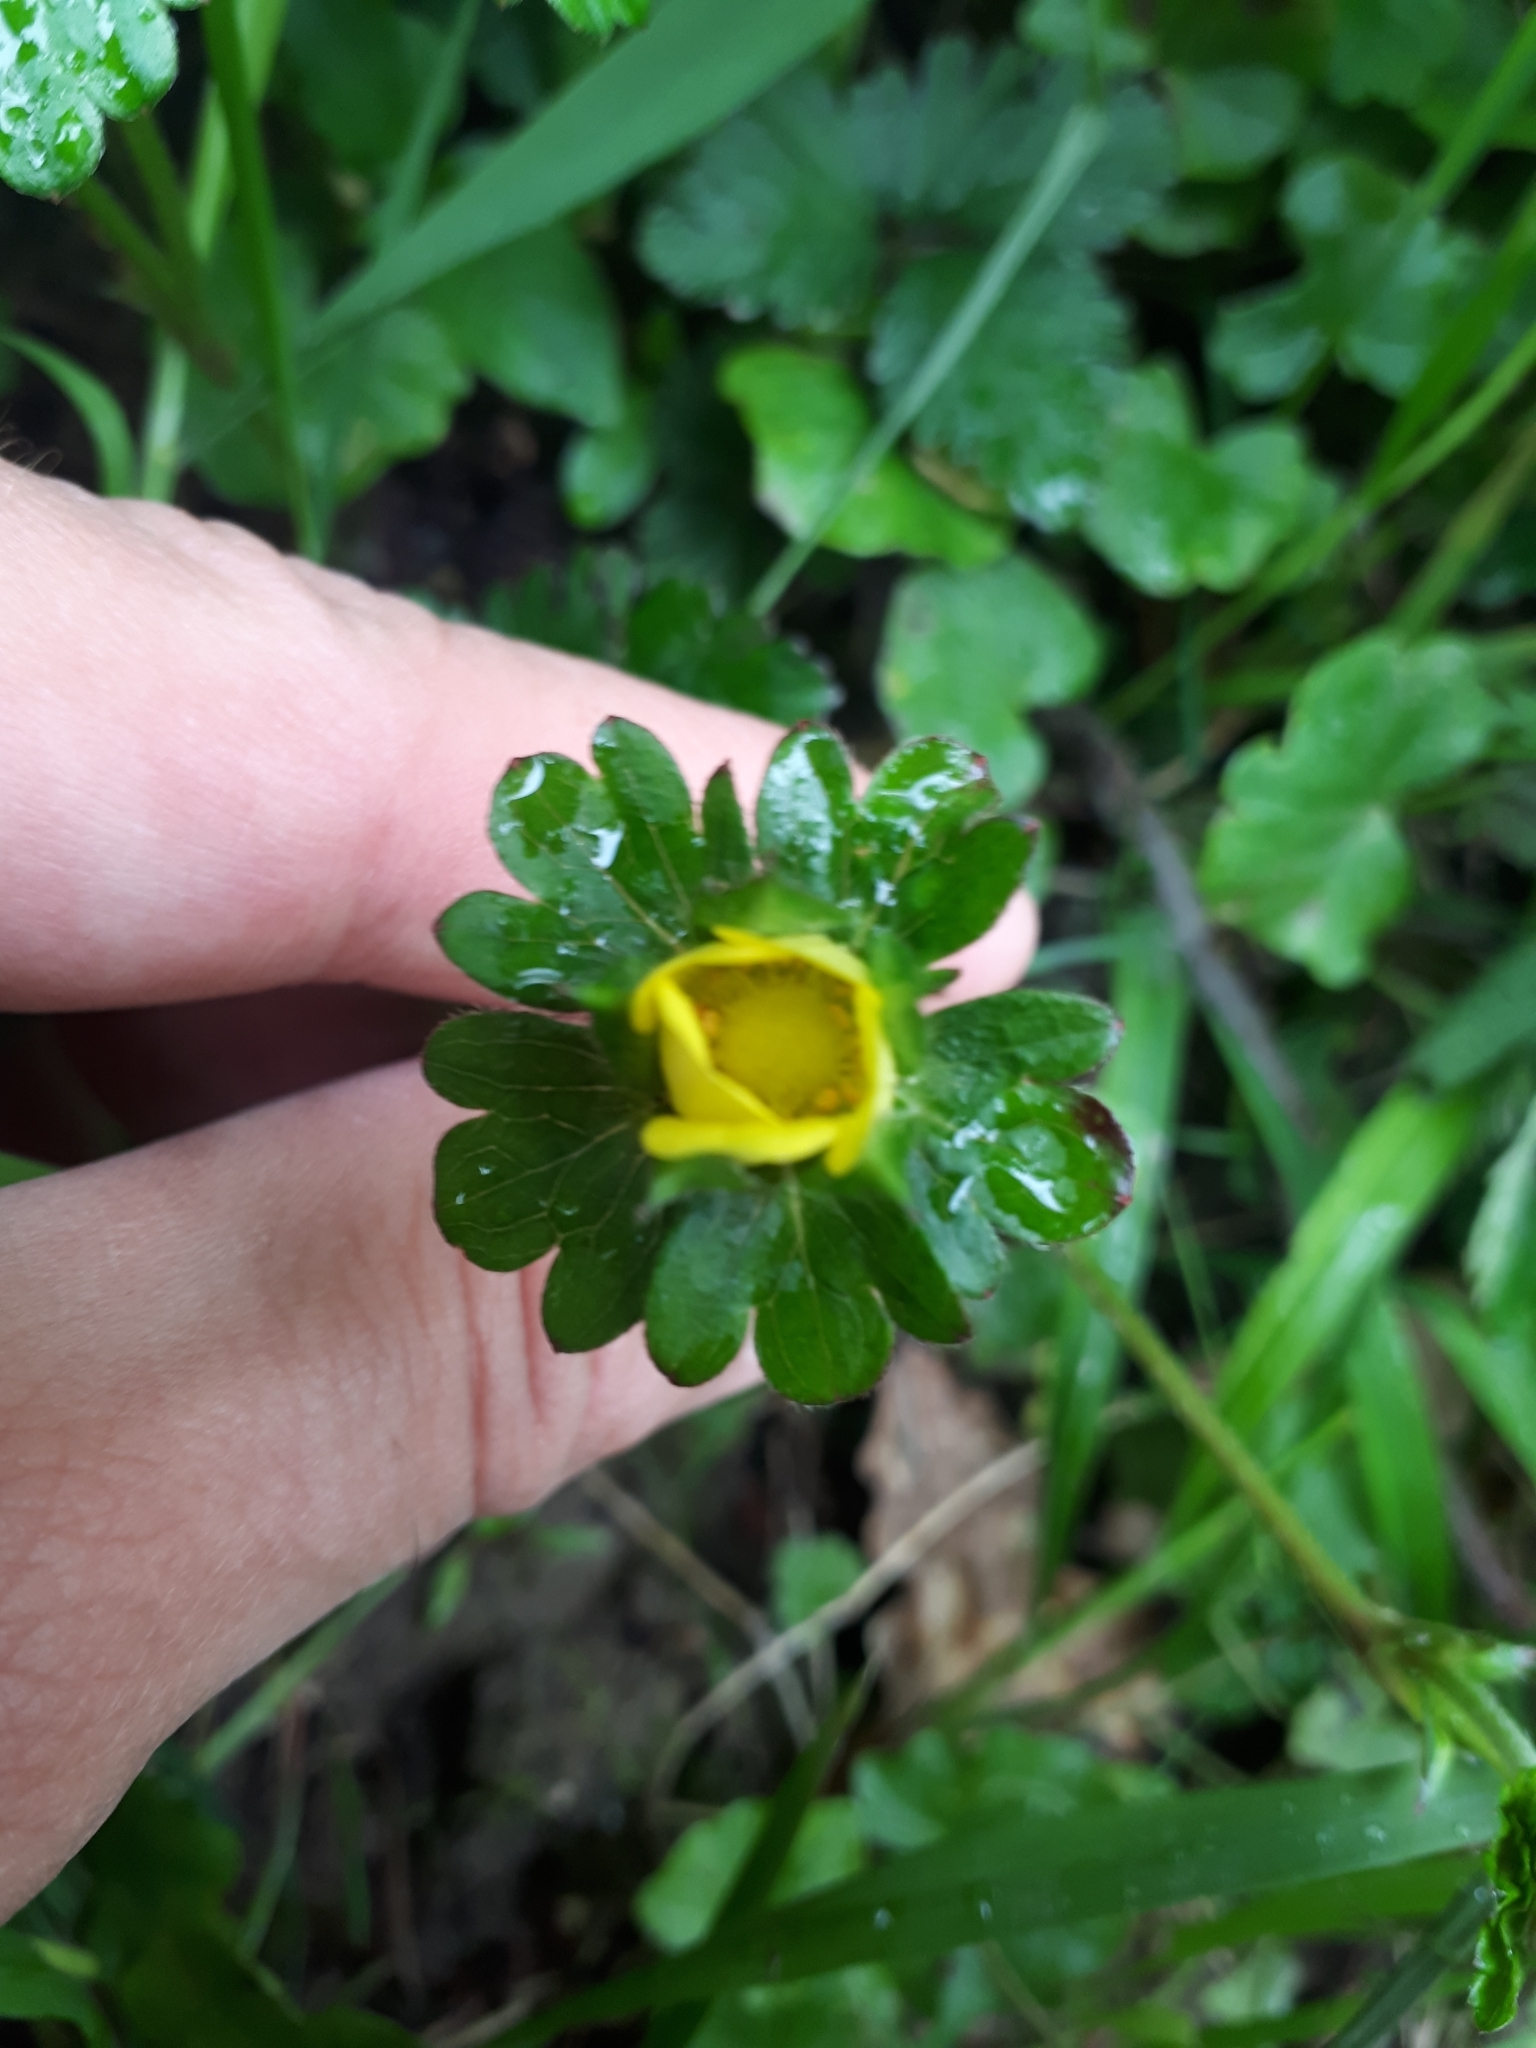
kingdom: Plantae
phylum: Tracheophyta
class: Magnoliopsida
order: Rosales
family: Rosaceae
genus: Potentilla
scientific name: Potentilla indica
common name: Yellow-flowered strawberry
